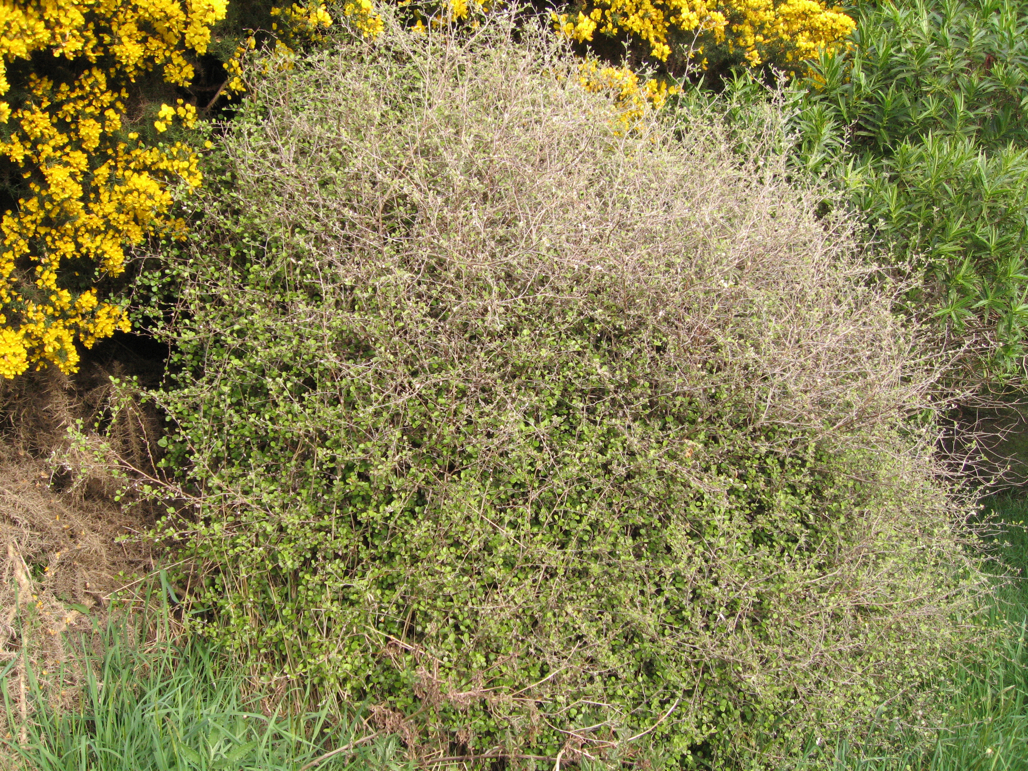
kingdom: Plantae
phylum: Tracheophyta
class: Magnoliopsida
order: Asterales
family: Asteraceae
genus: Ozothamnus
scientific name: Ozothamnus glomeratus
